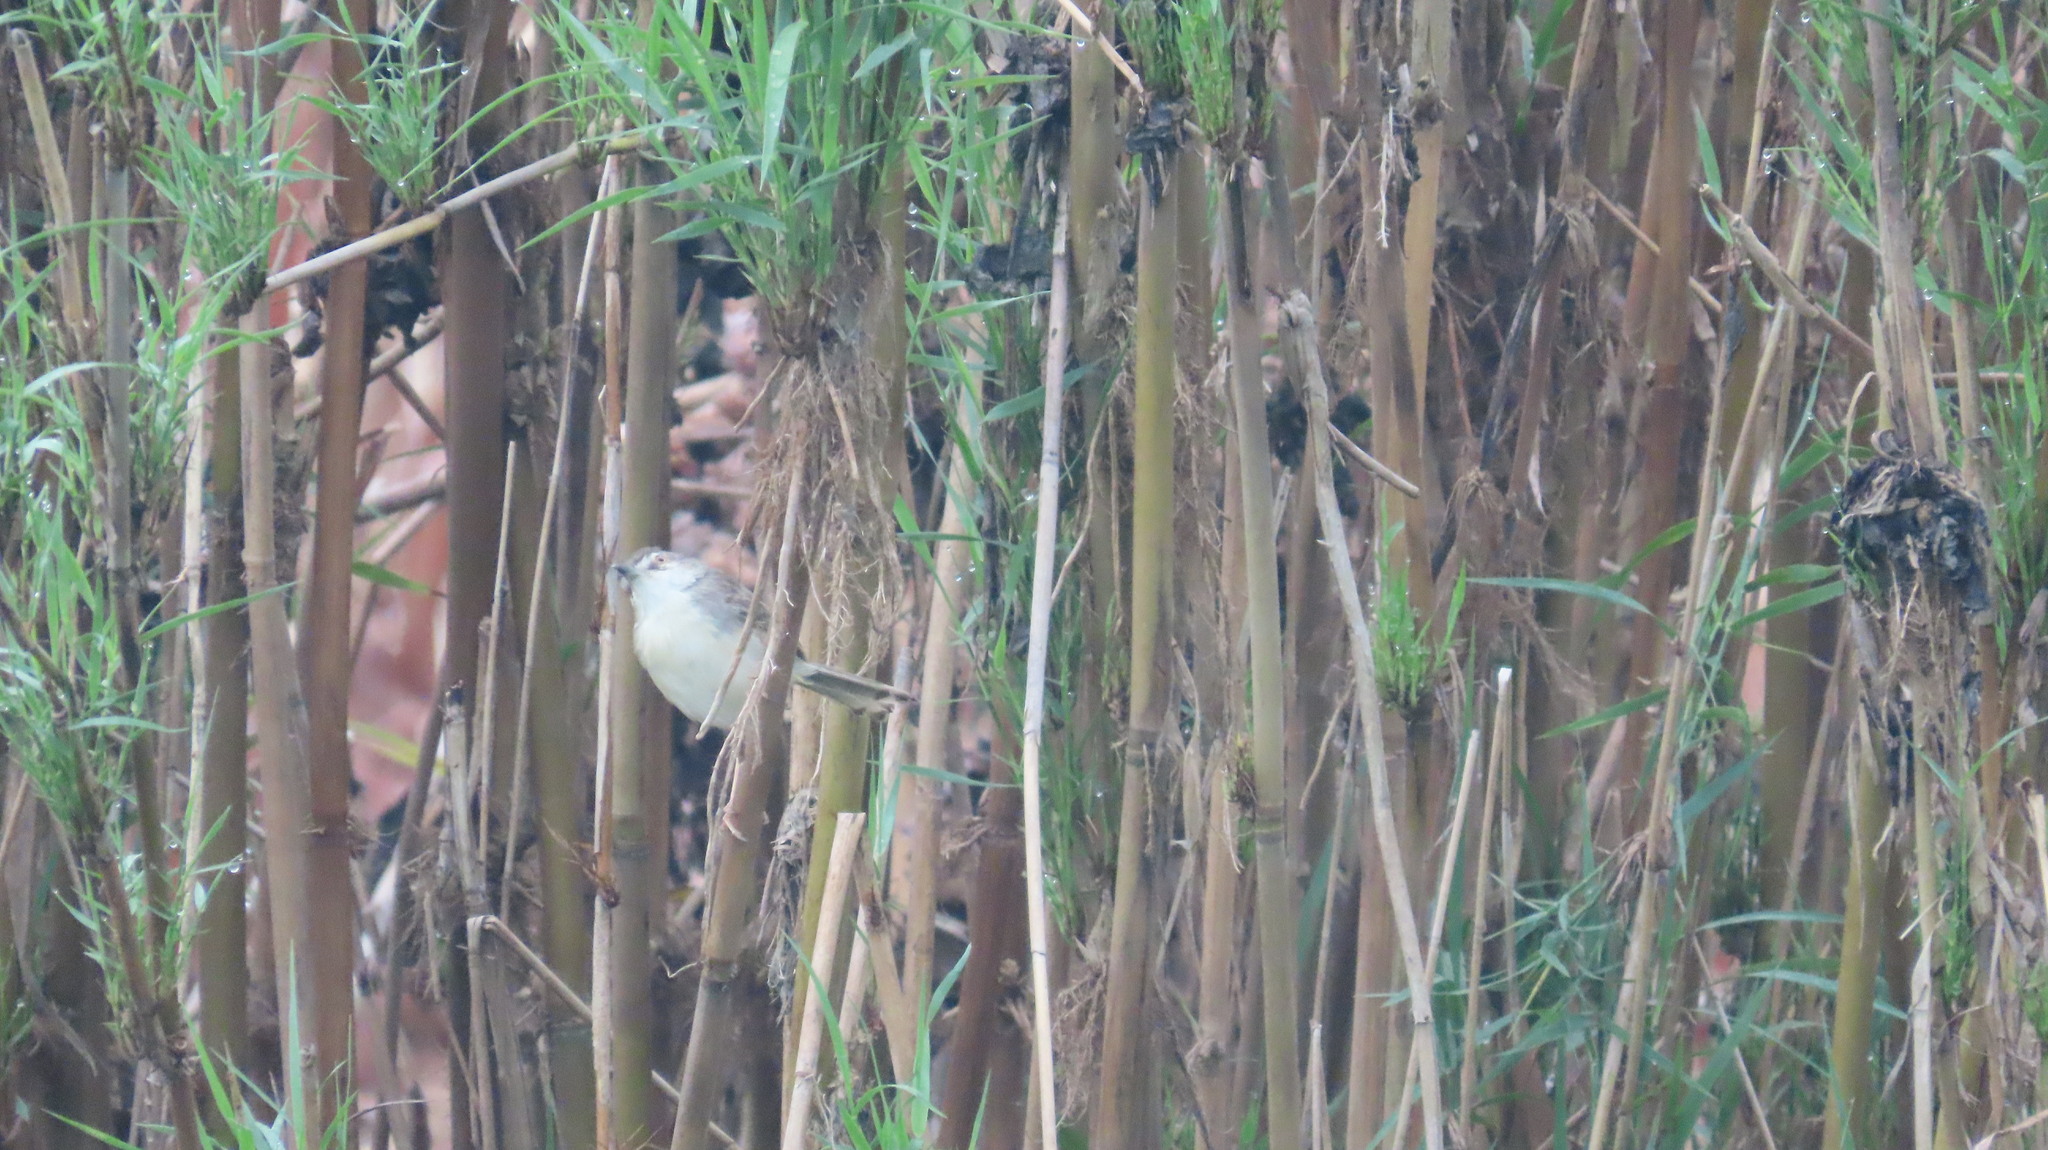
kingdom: Animalia
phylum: Chordata
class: Aves
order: Passeriformes
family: Cisticolidae
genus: Prinia
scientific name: Prinia inornata
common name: Plain prinia
